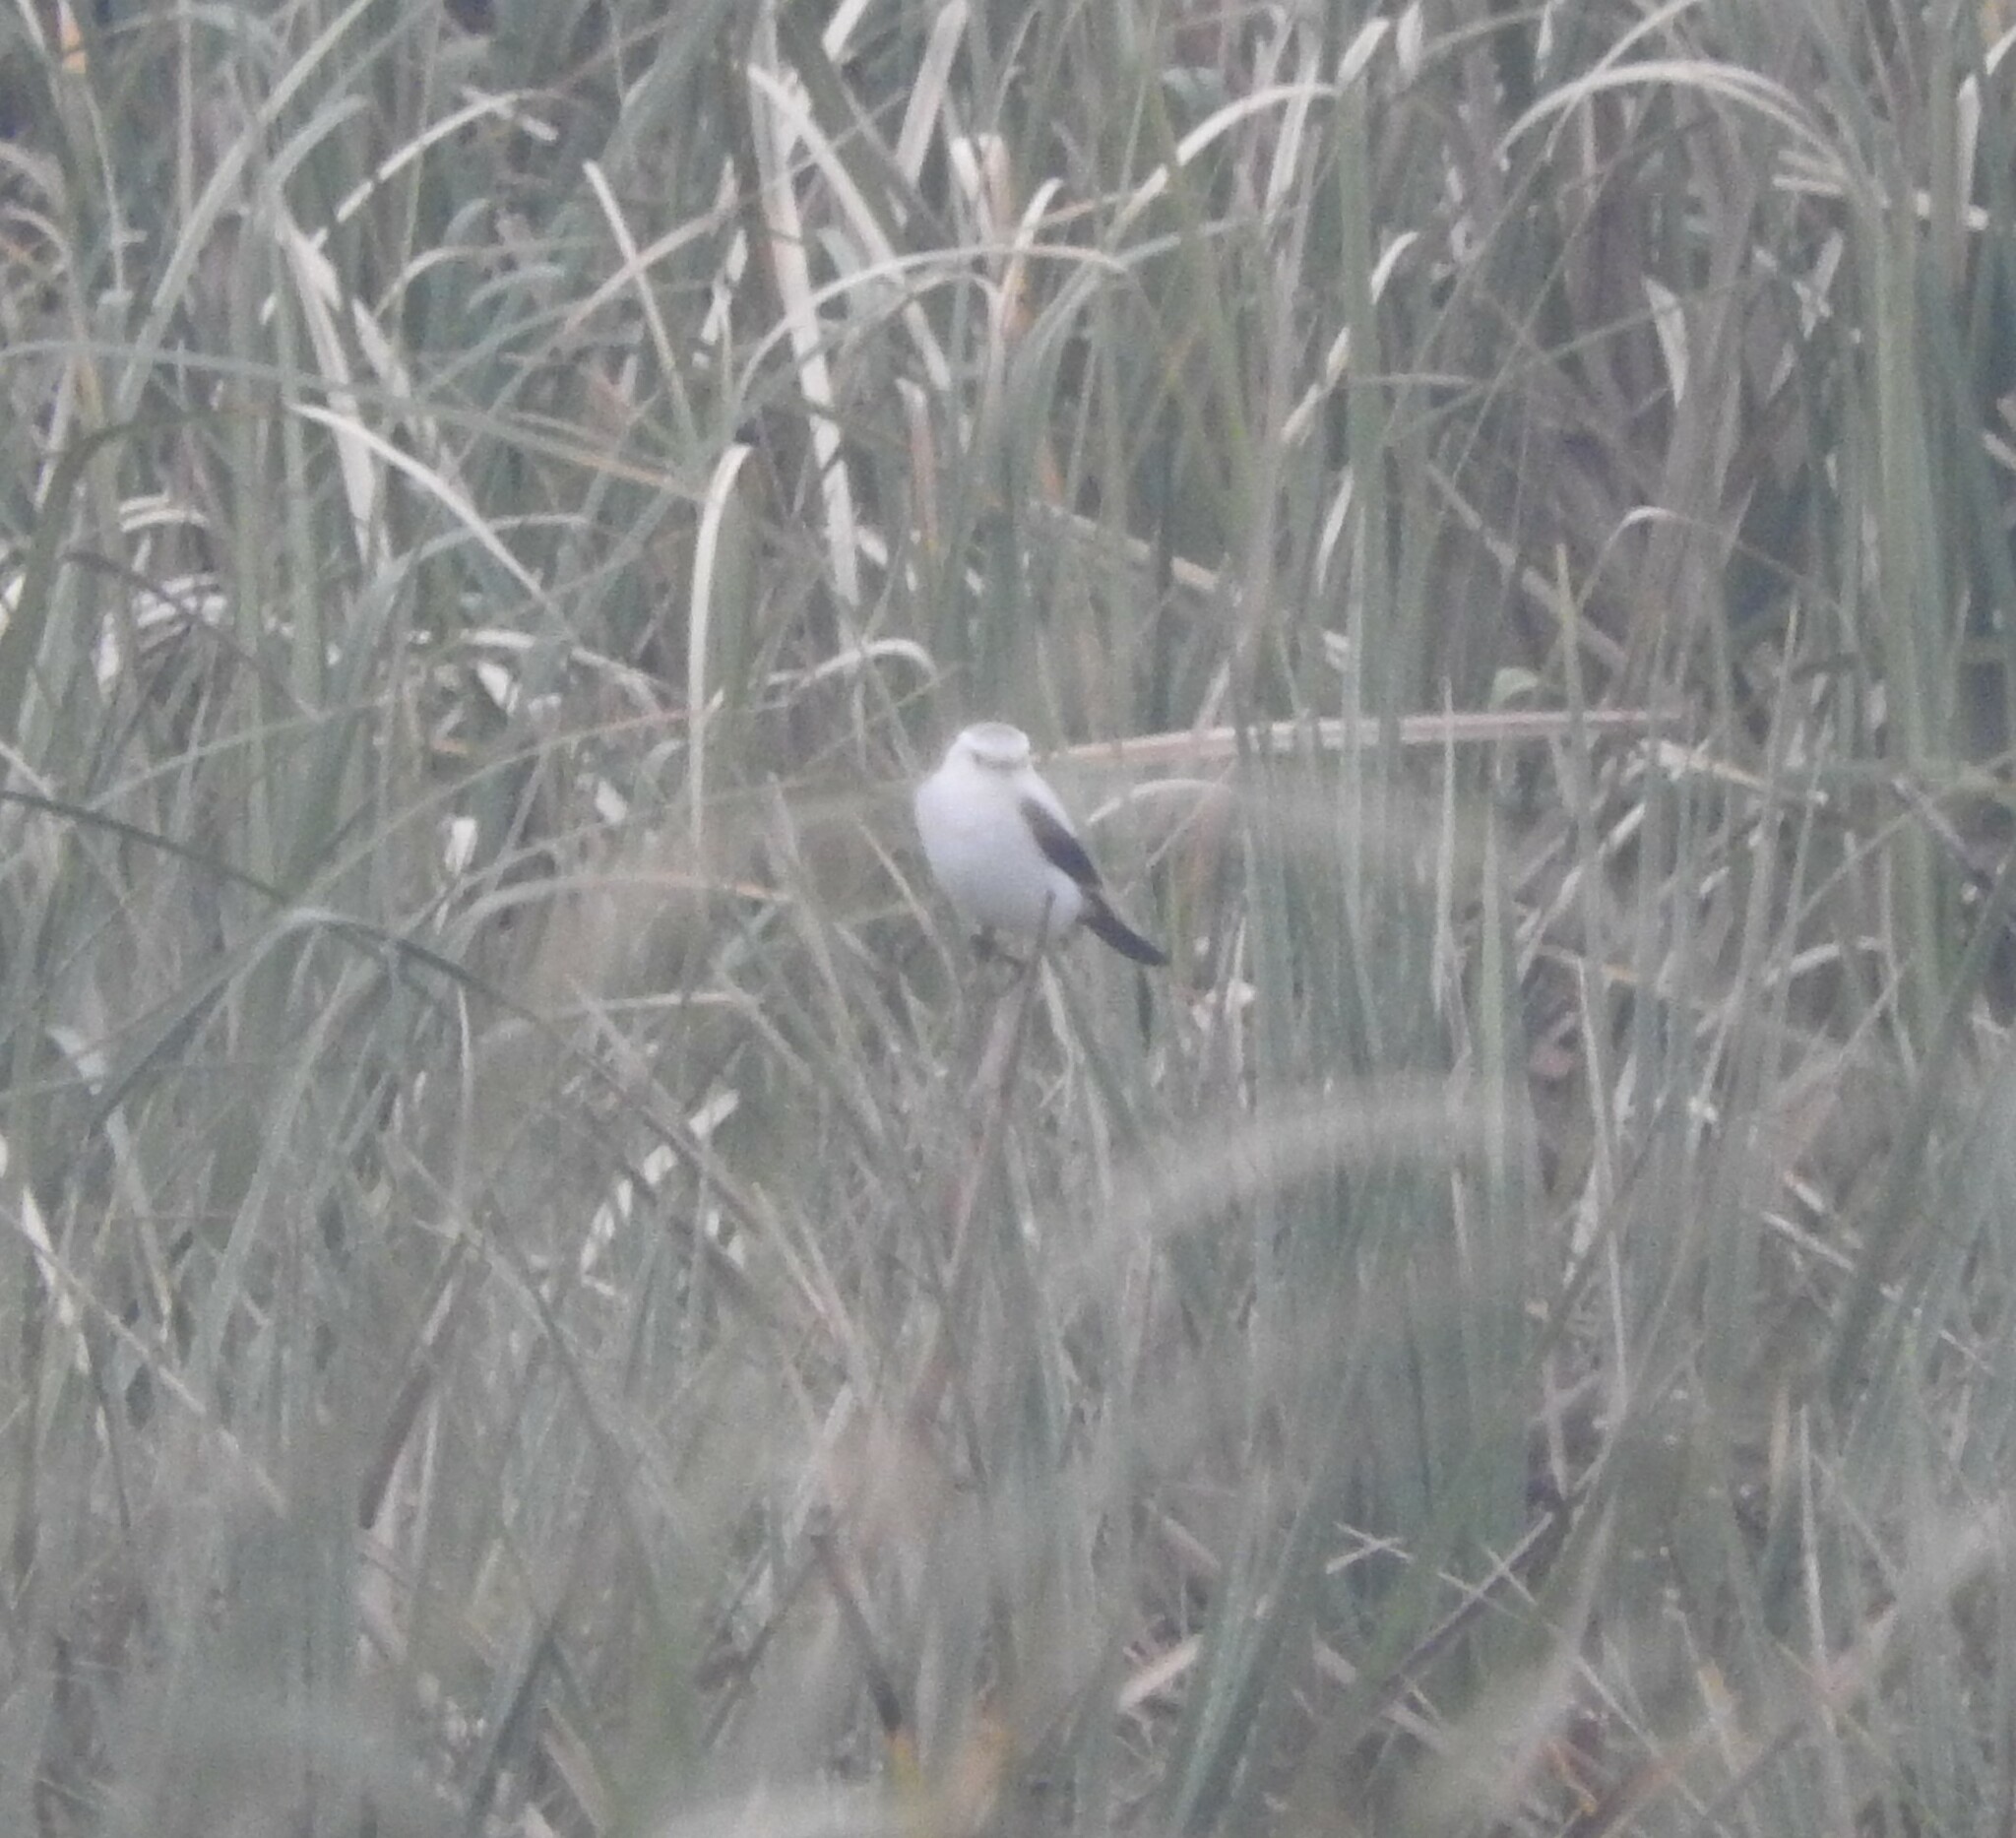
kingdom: Animalia
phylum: Chordata
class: Aves
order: Passeriformes
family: Tyrannidae
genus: Heteroxolmis
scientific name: Heteroxolmis dominicana
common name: Black-and-white monjita
